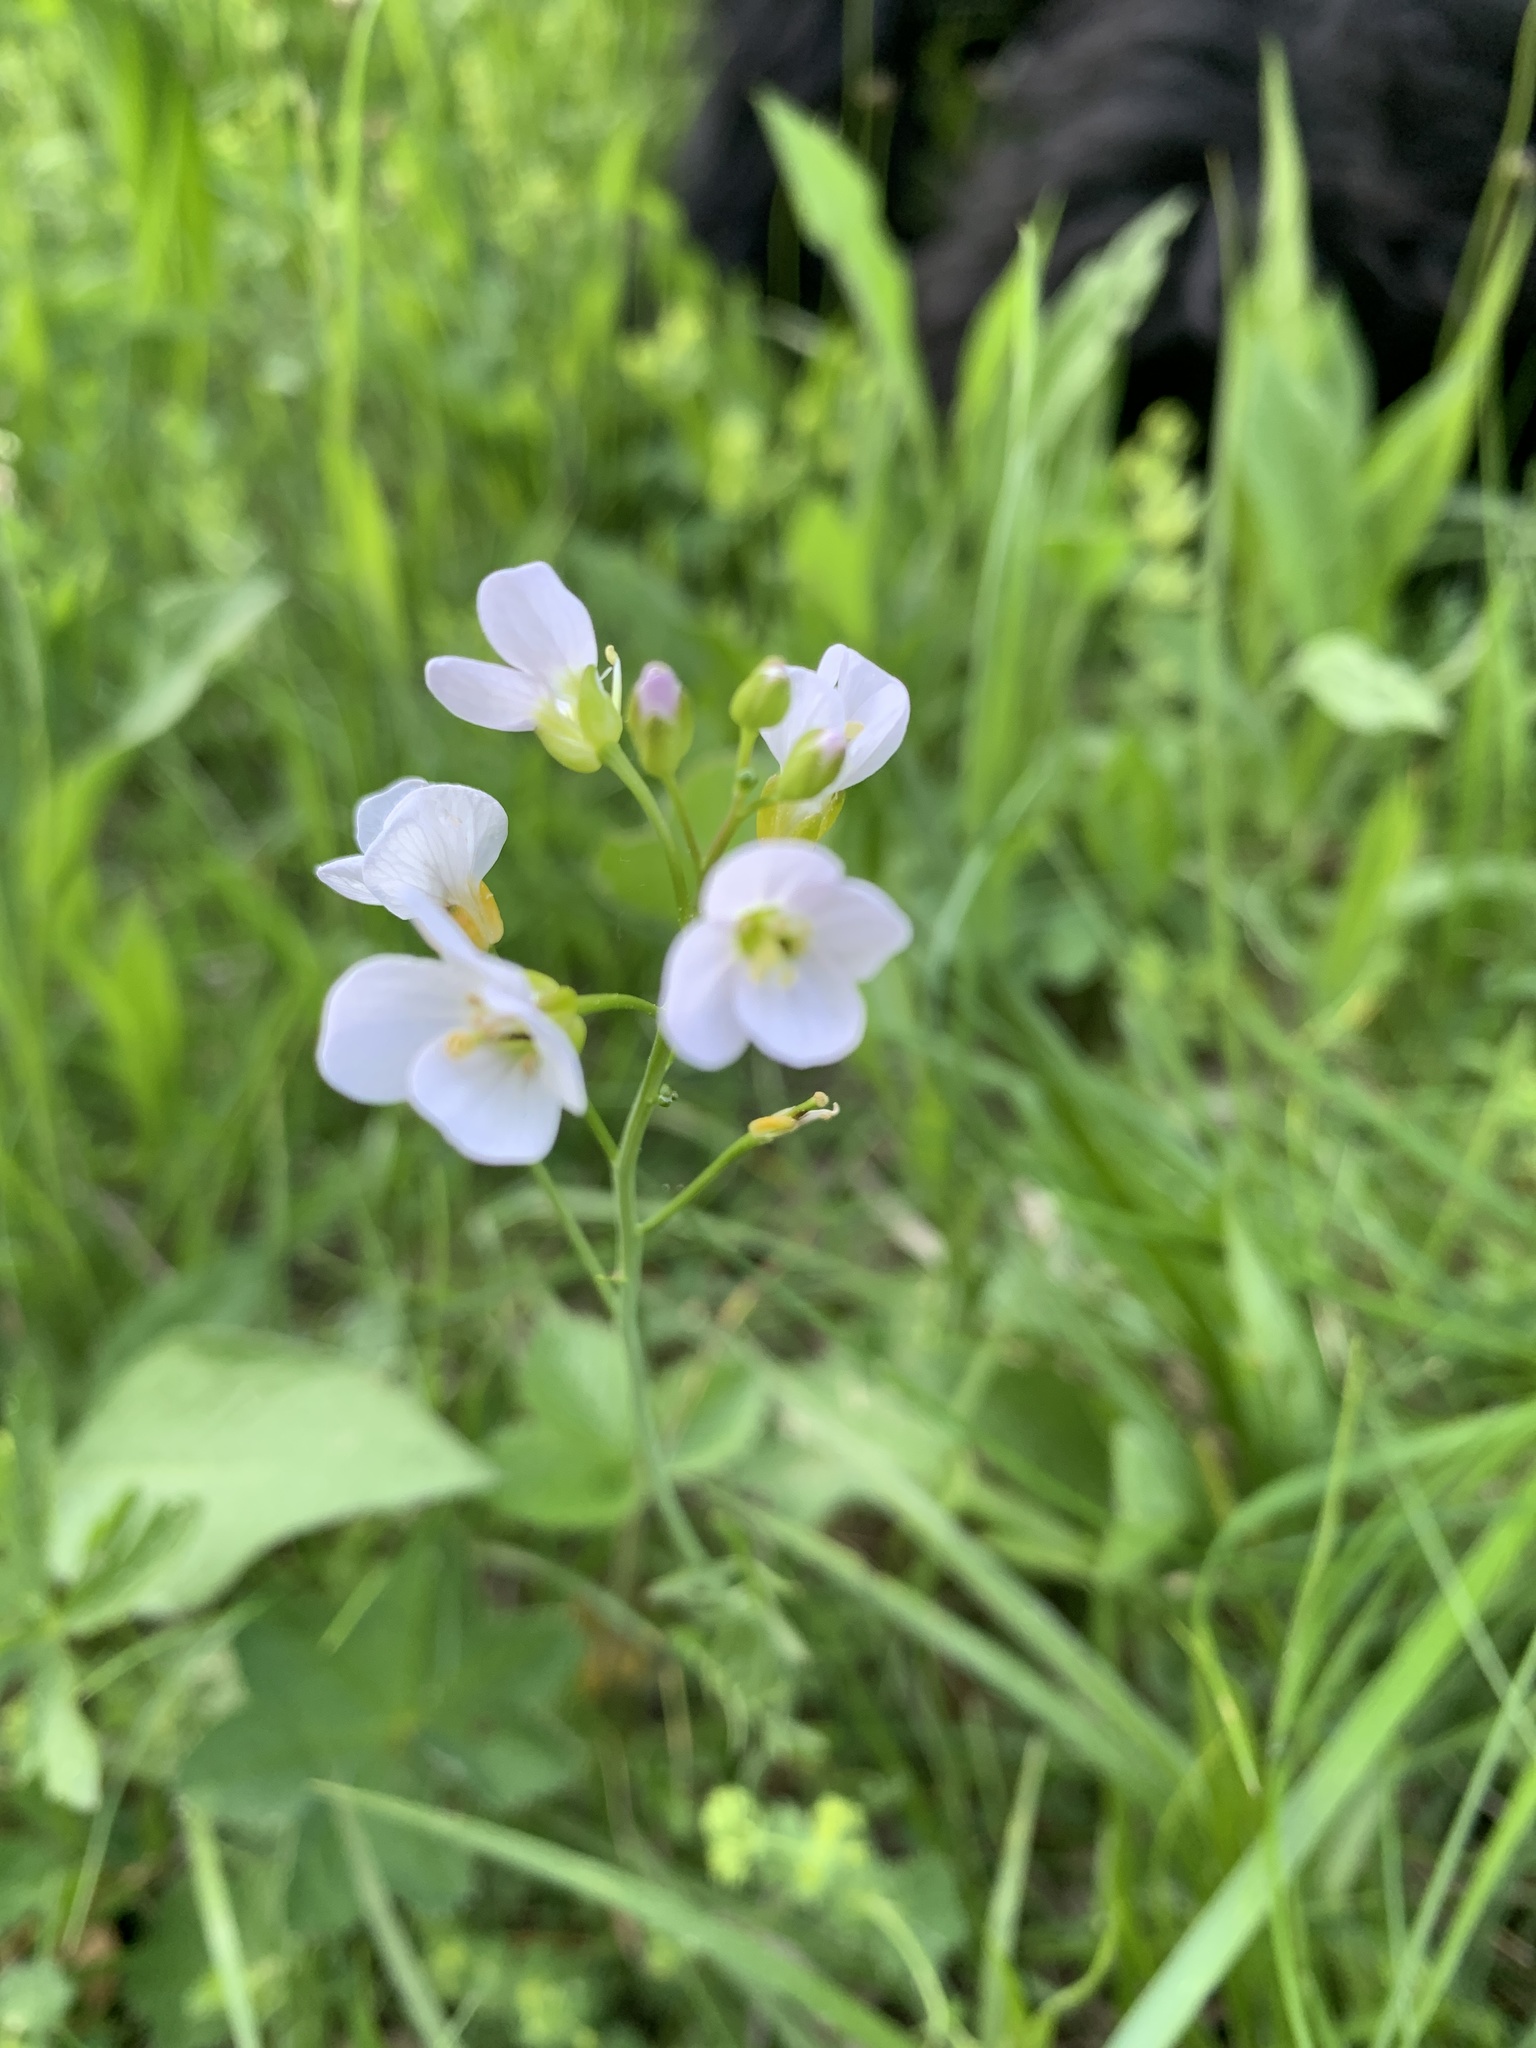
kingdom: Plantae
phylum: Tracheophyta
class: Magnoliopsida
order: Brassicales
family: Brassicaceae
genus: Cardamine
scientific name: Cardamine pratensis
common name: Cuckoo flower
